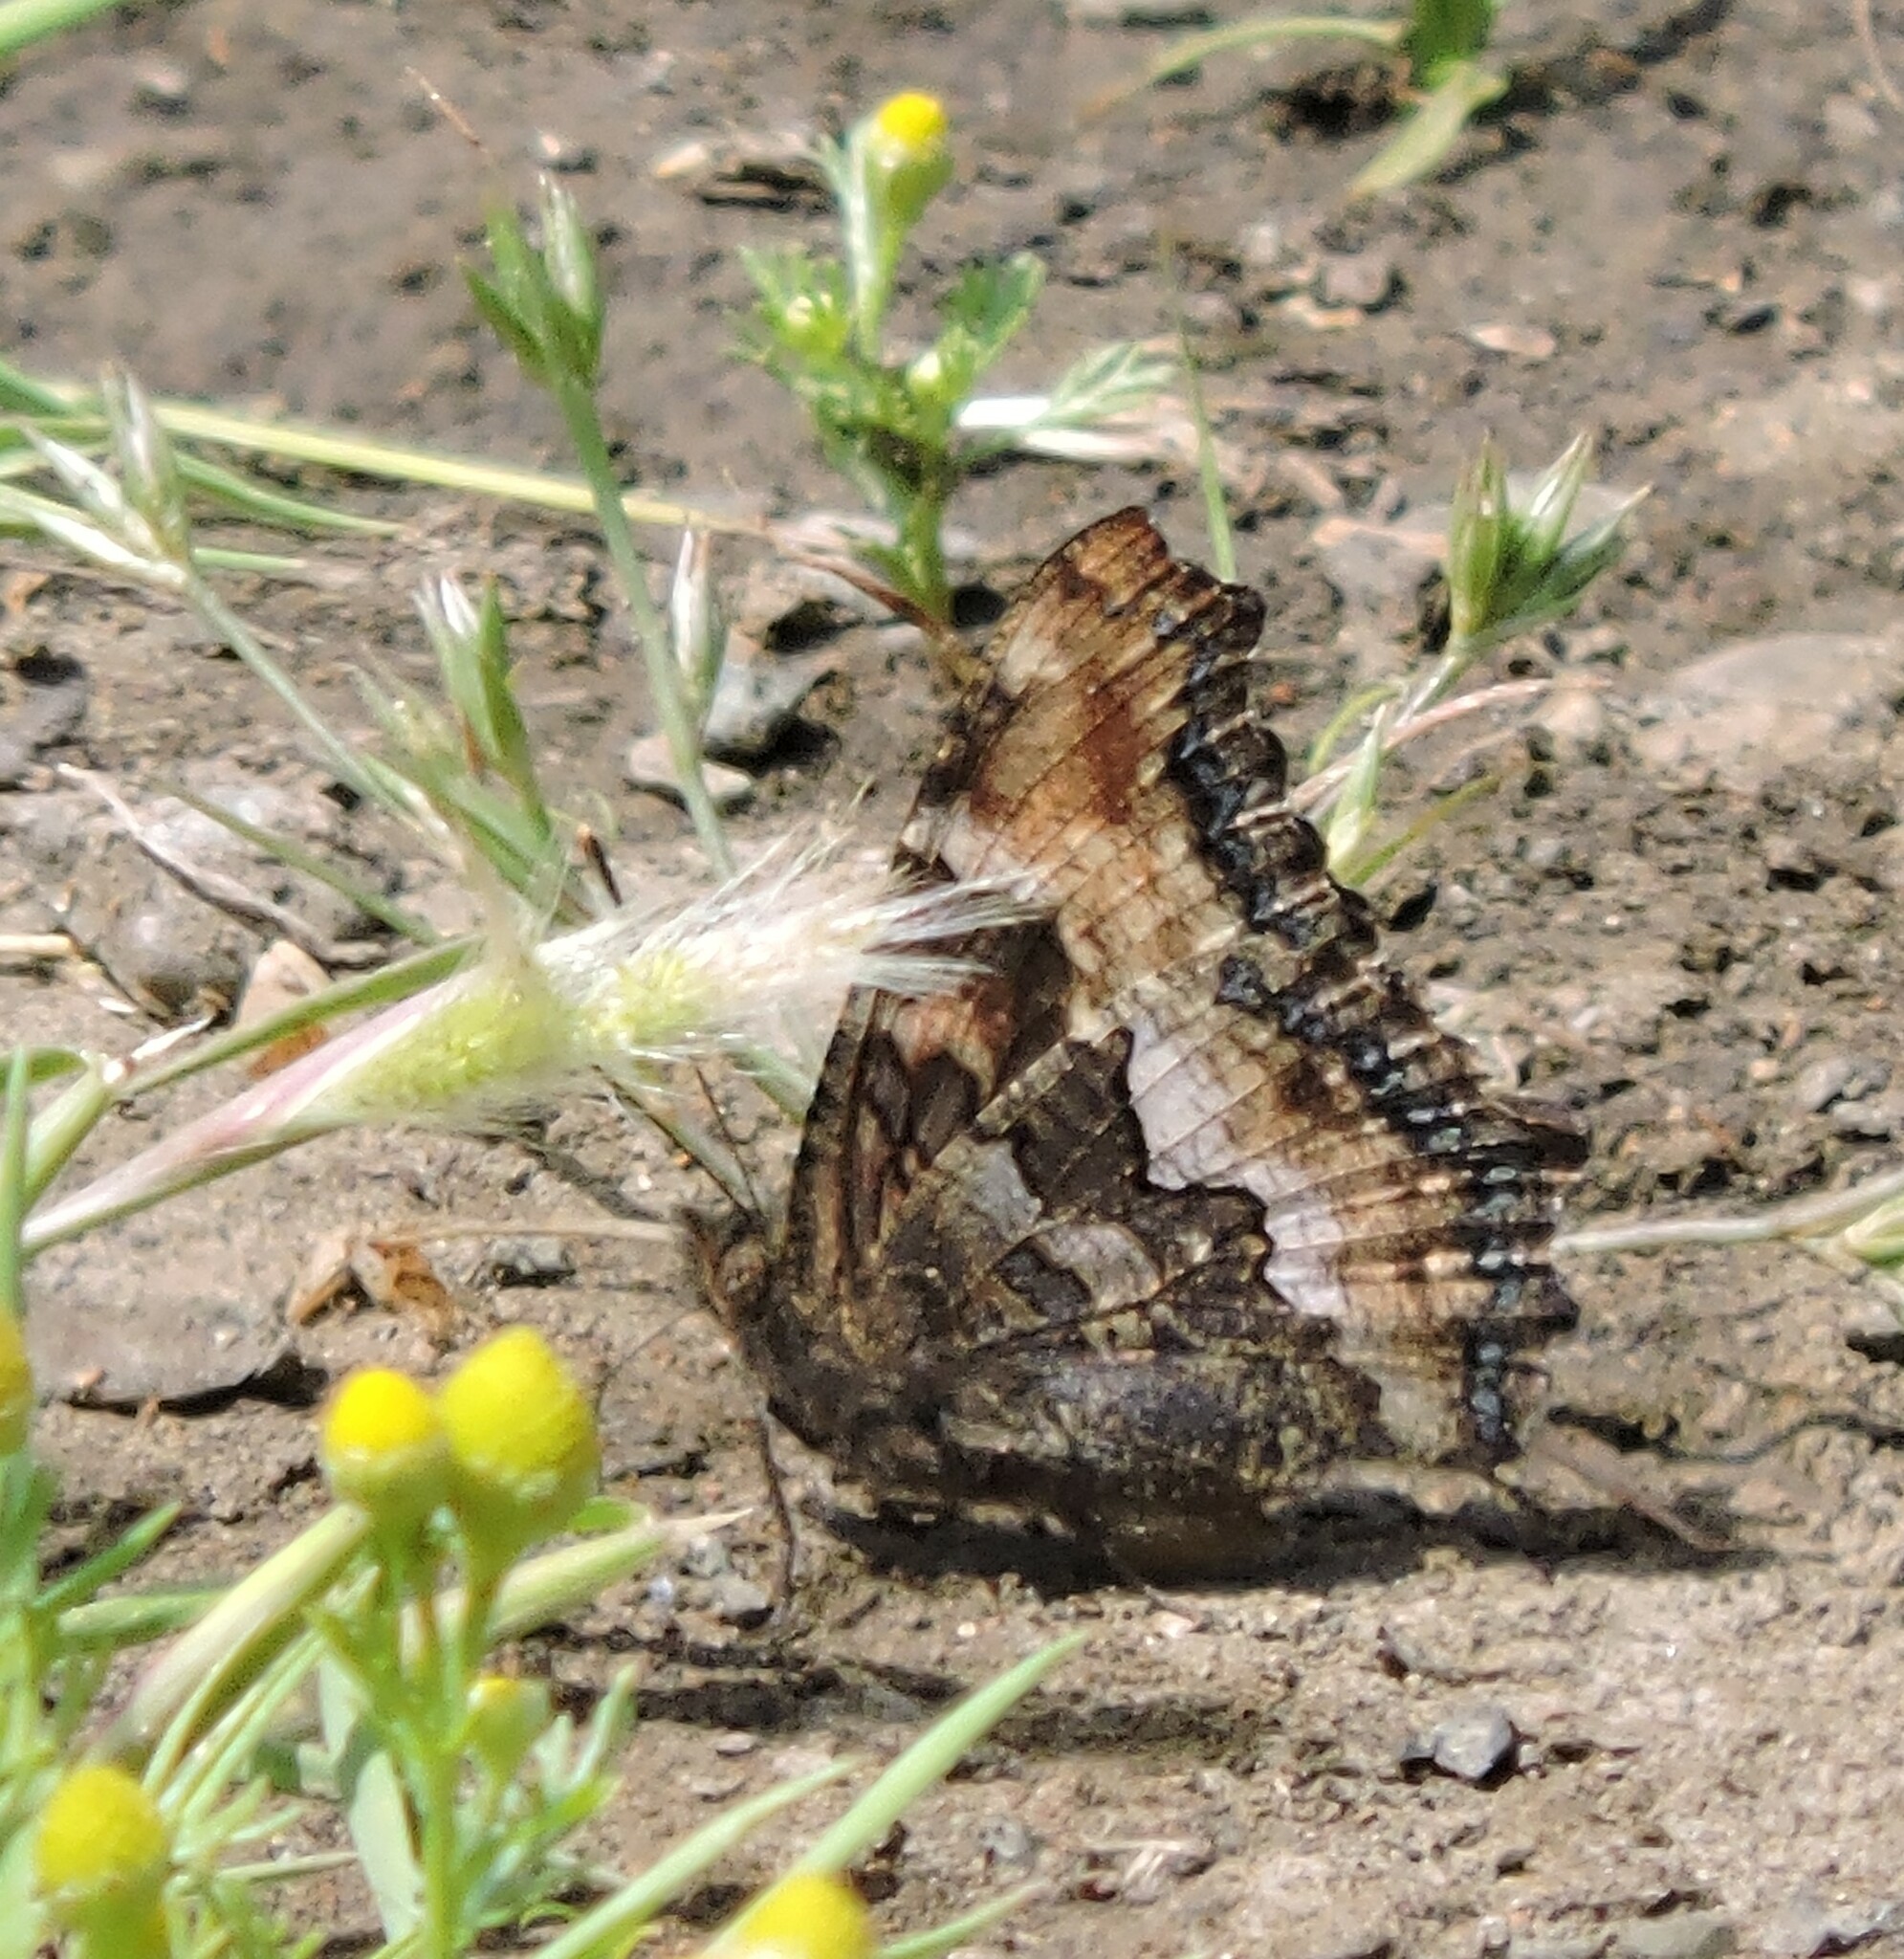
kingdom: Animalia
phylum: Arthropoda
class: Insecta
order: Lepidoptera
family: Nymphalidae
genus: Nymphalis
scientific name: Nymphalis californica
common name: California tortoiseshell
